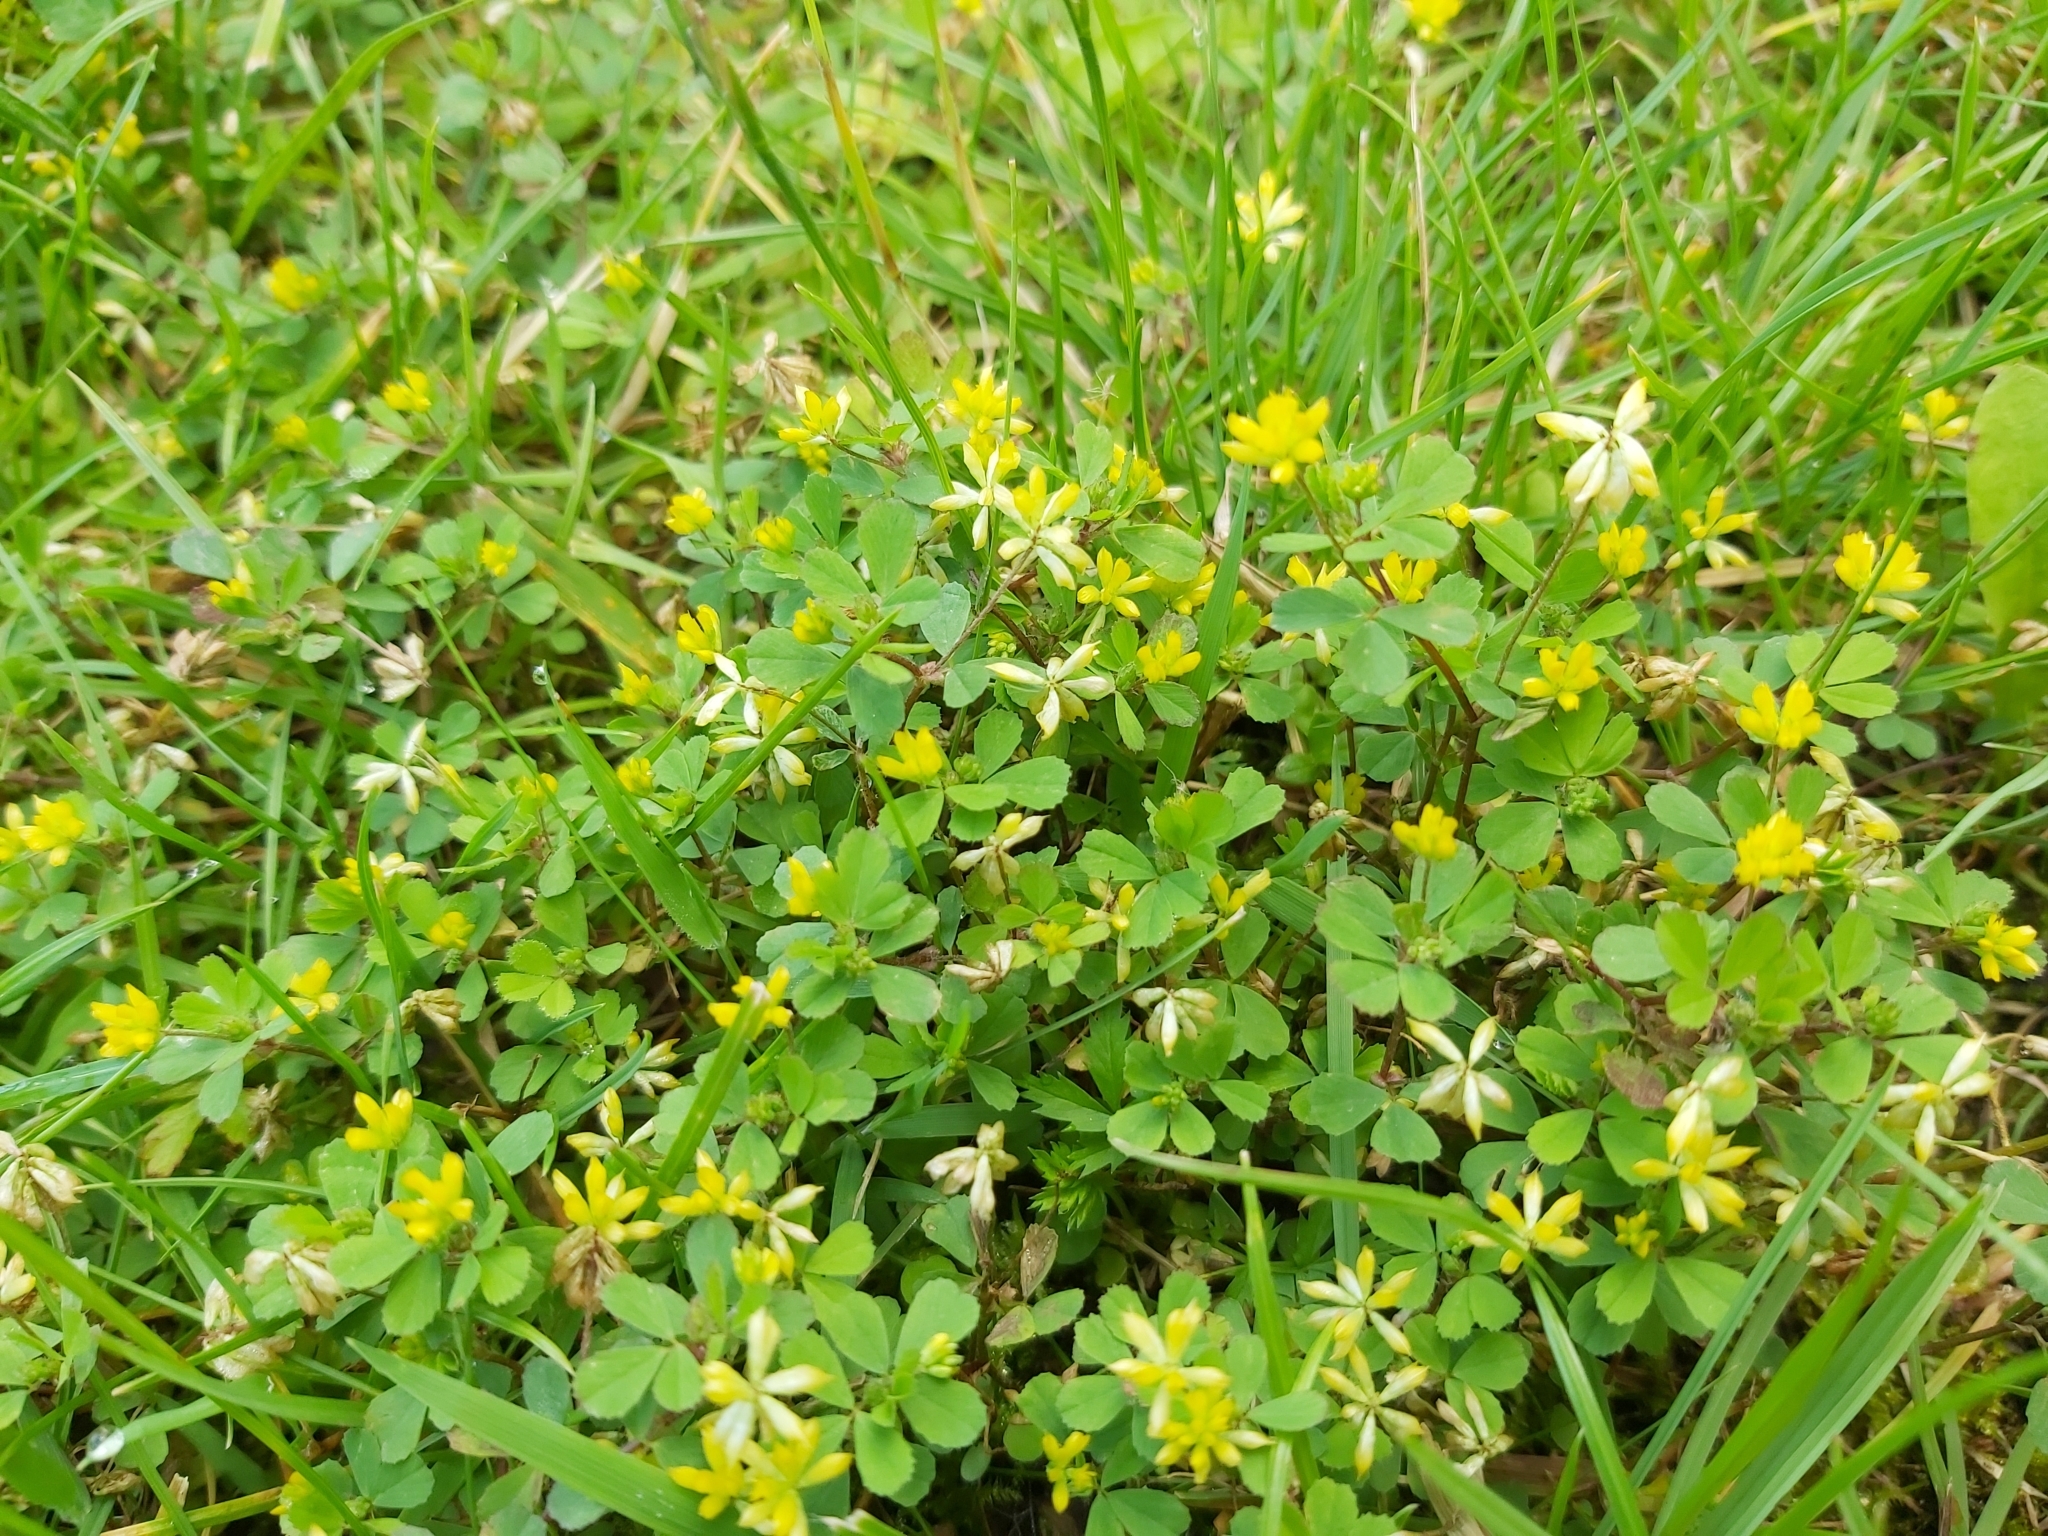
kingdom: Plantae
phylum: Tracheophyta
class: Magnoliopsida
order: Fabales
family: Fabaceae
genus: Trifolium
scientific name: Trifolium dubium
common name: Suckling clover
